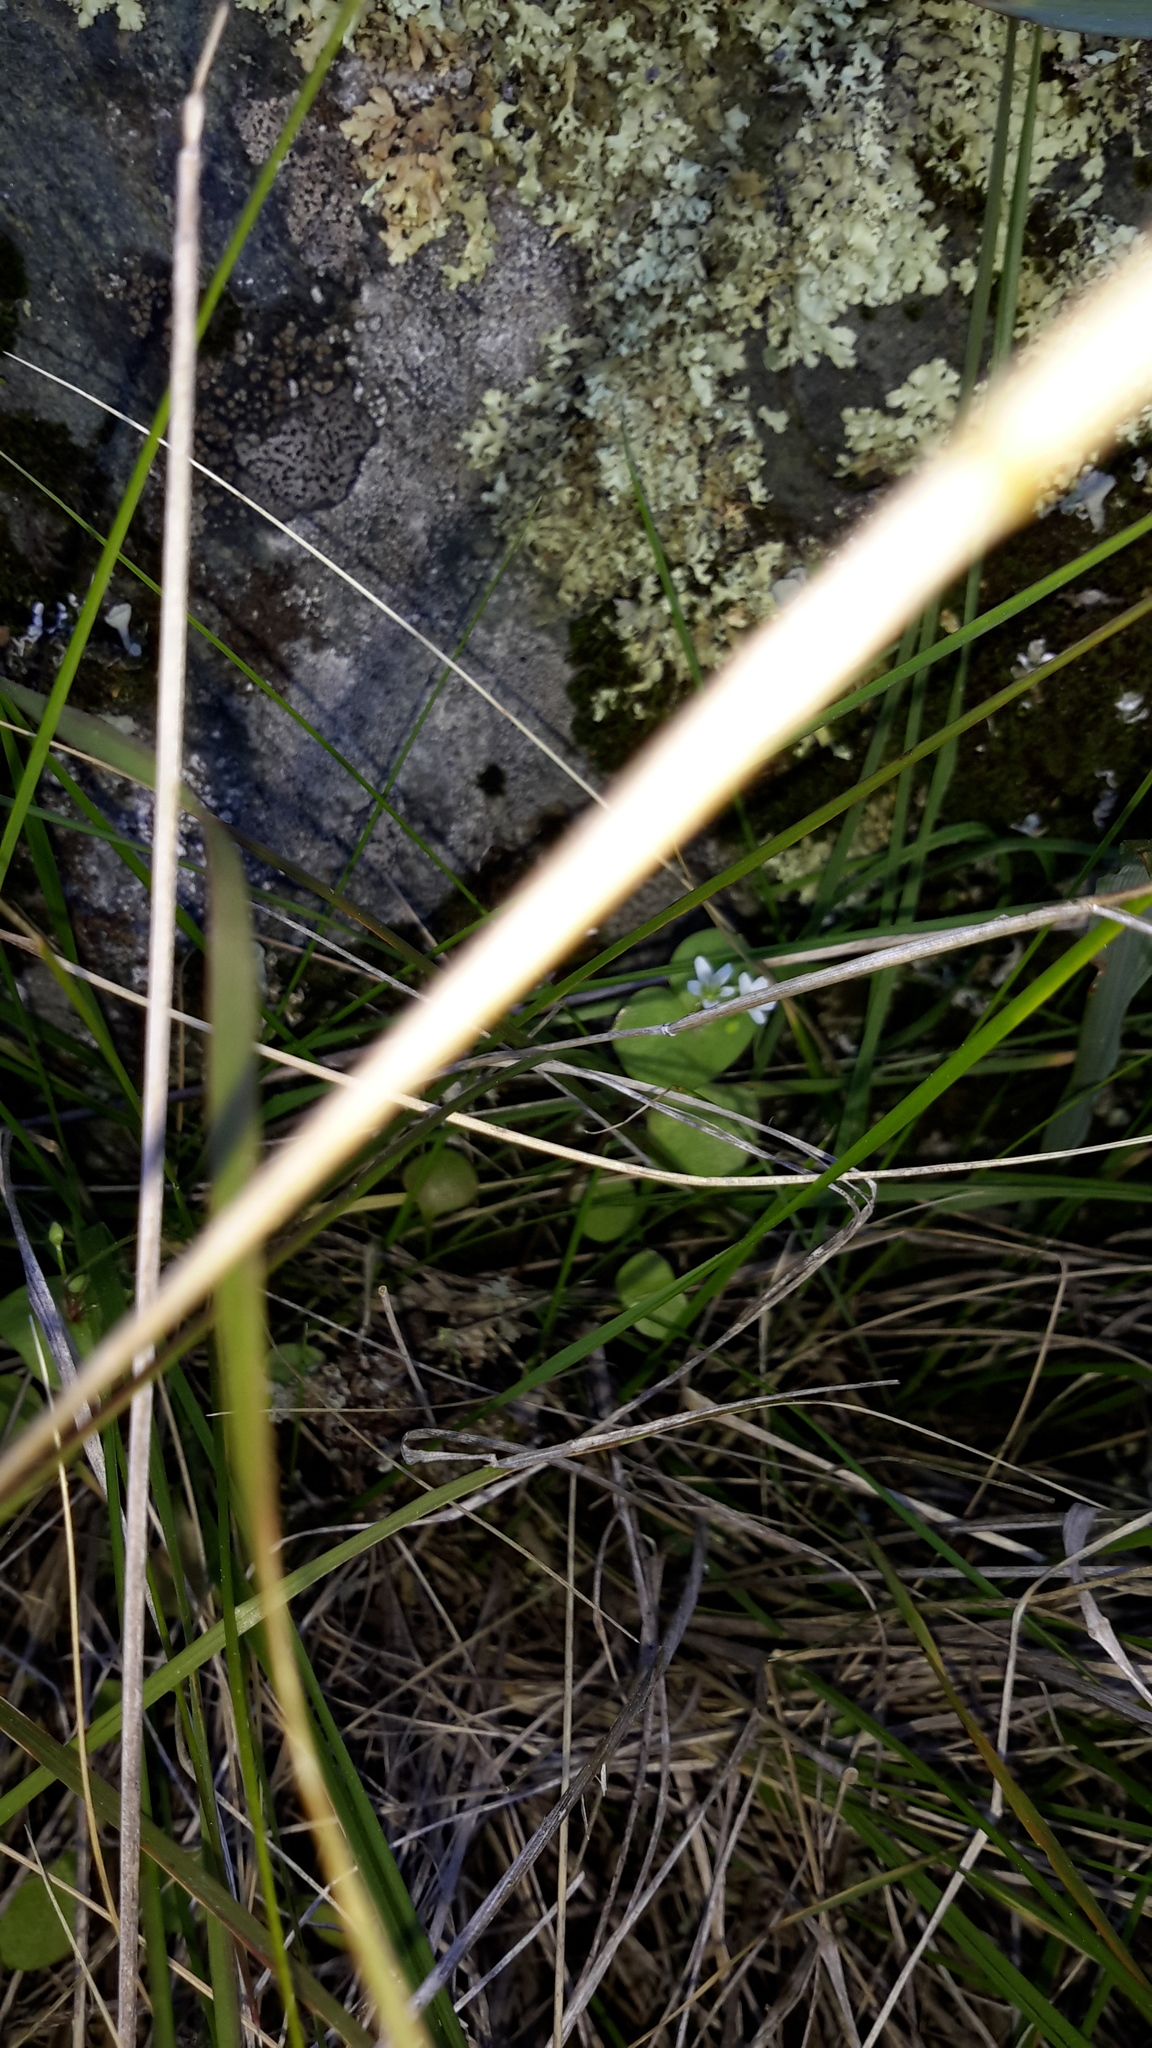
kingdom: Plantae
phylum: Tracheophyta
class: Magnoliopsida
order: Caryophyllales
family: Montiaceae
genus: Claytonia
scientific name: Claytonia perfoliata
